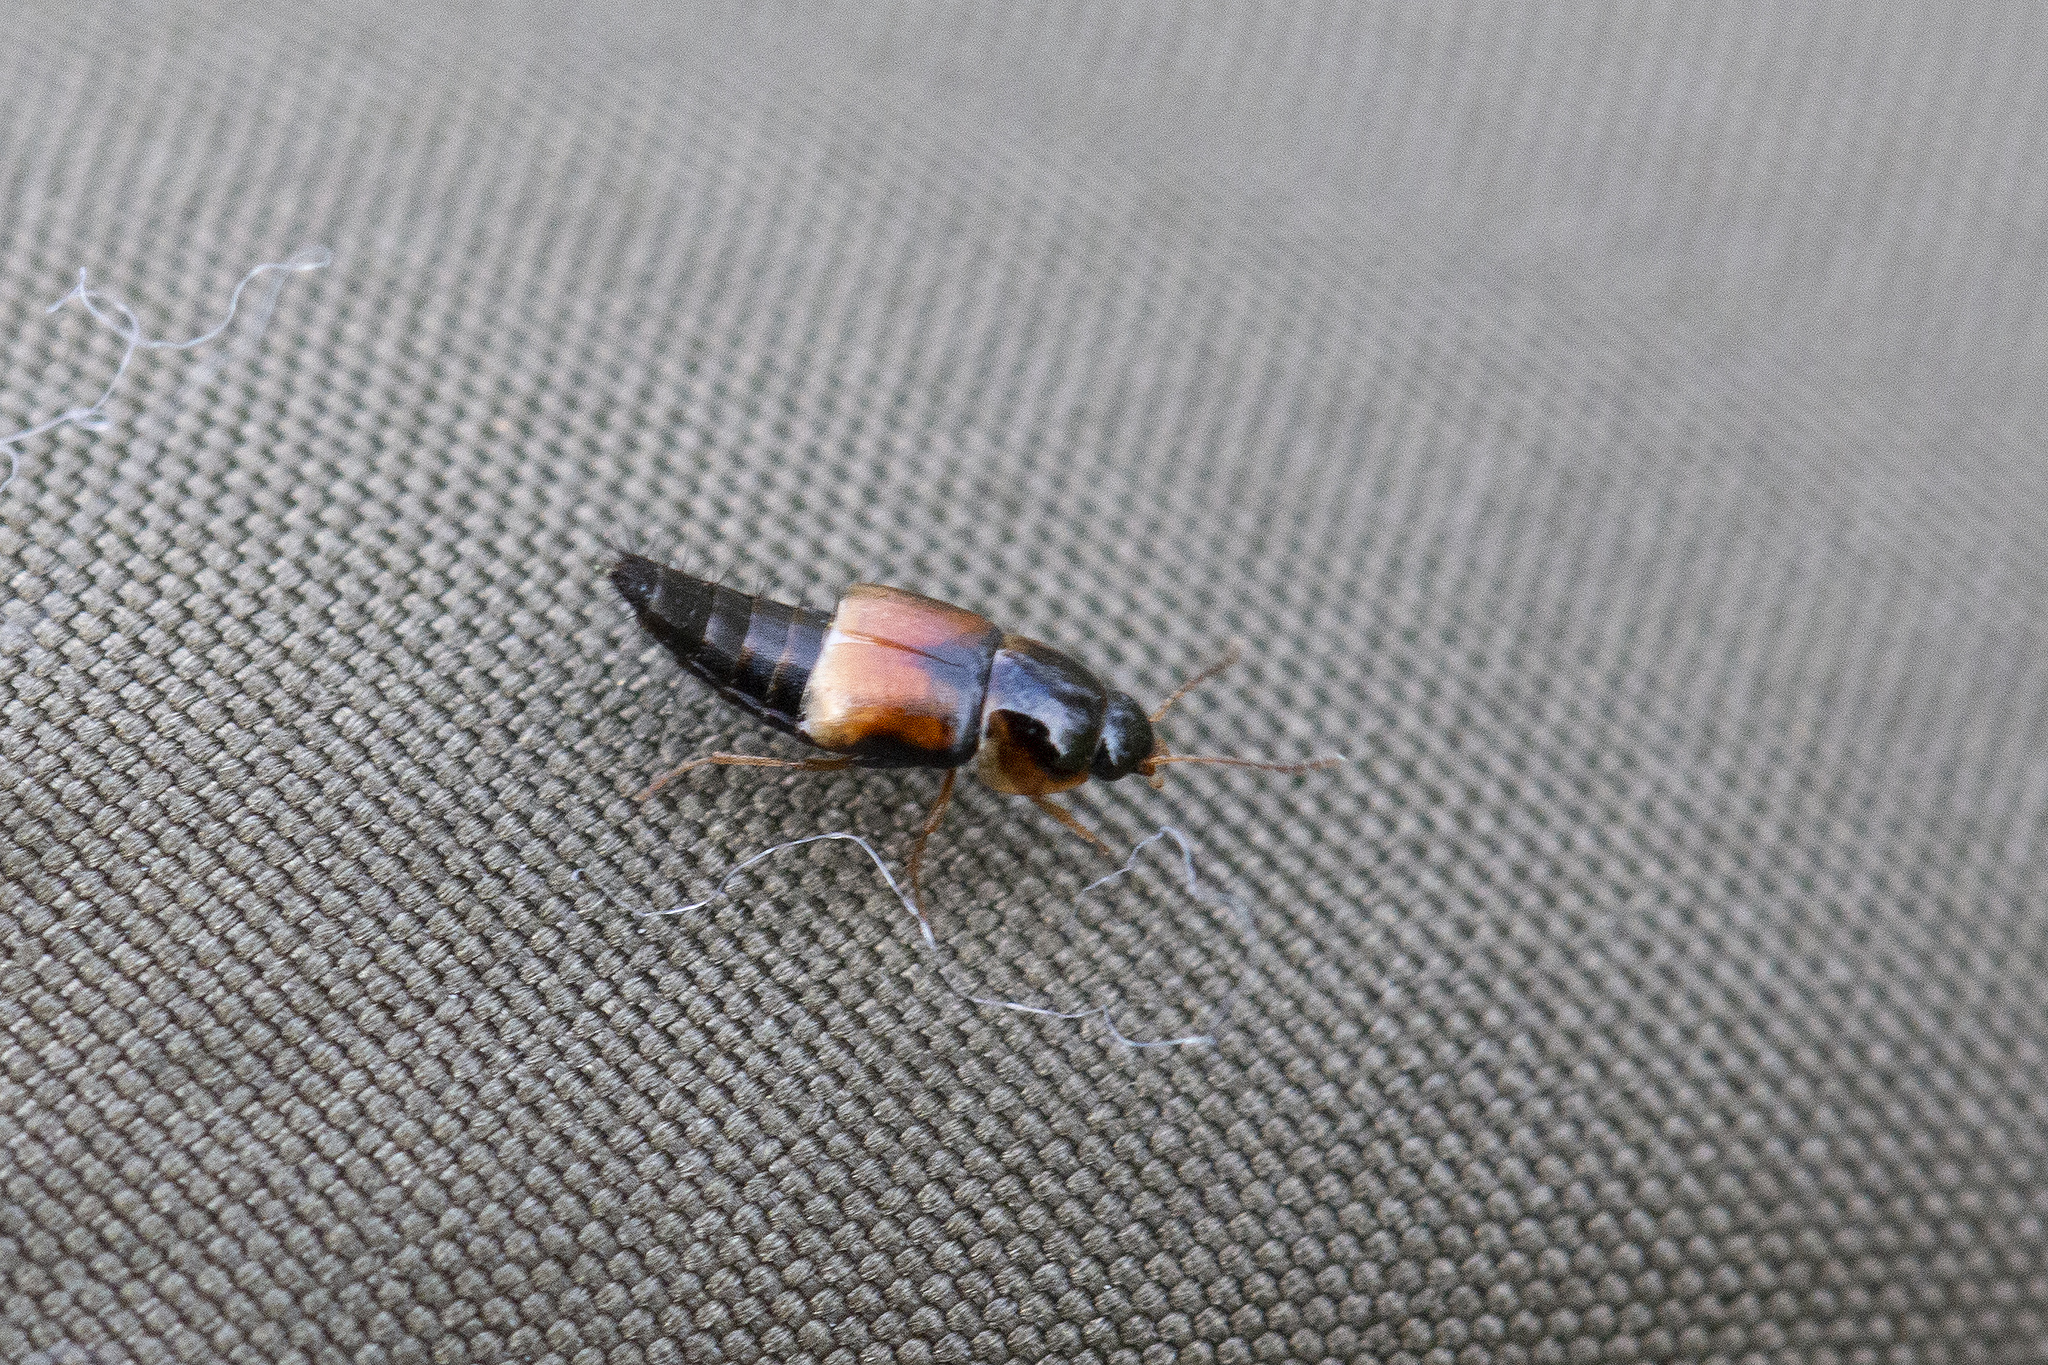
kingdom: Animalia
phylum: Arthropoda
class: Insecta
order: Coleoptera
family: Staphylinidae
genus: Tachyporus
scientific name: Tachyporus hypnorum
